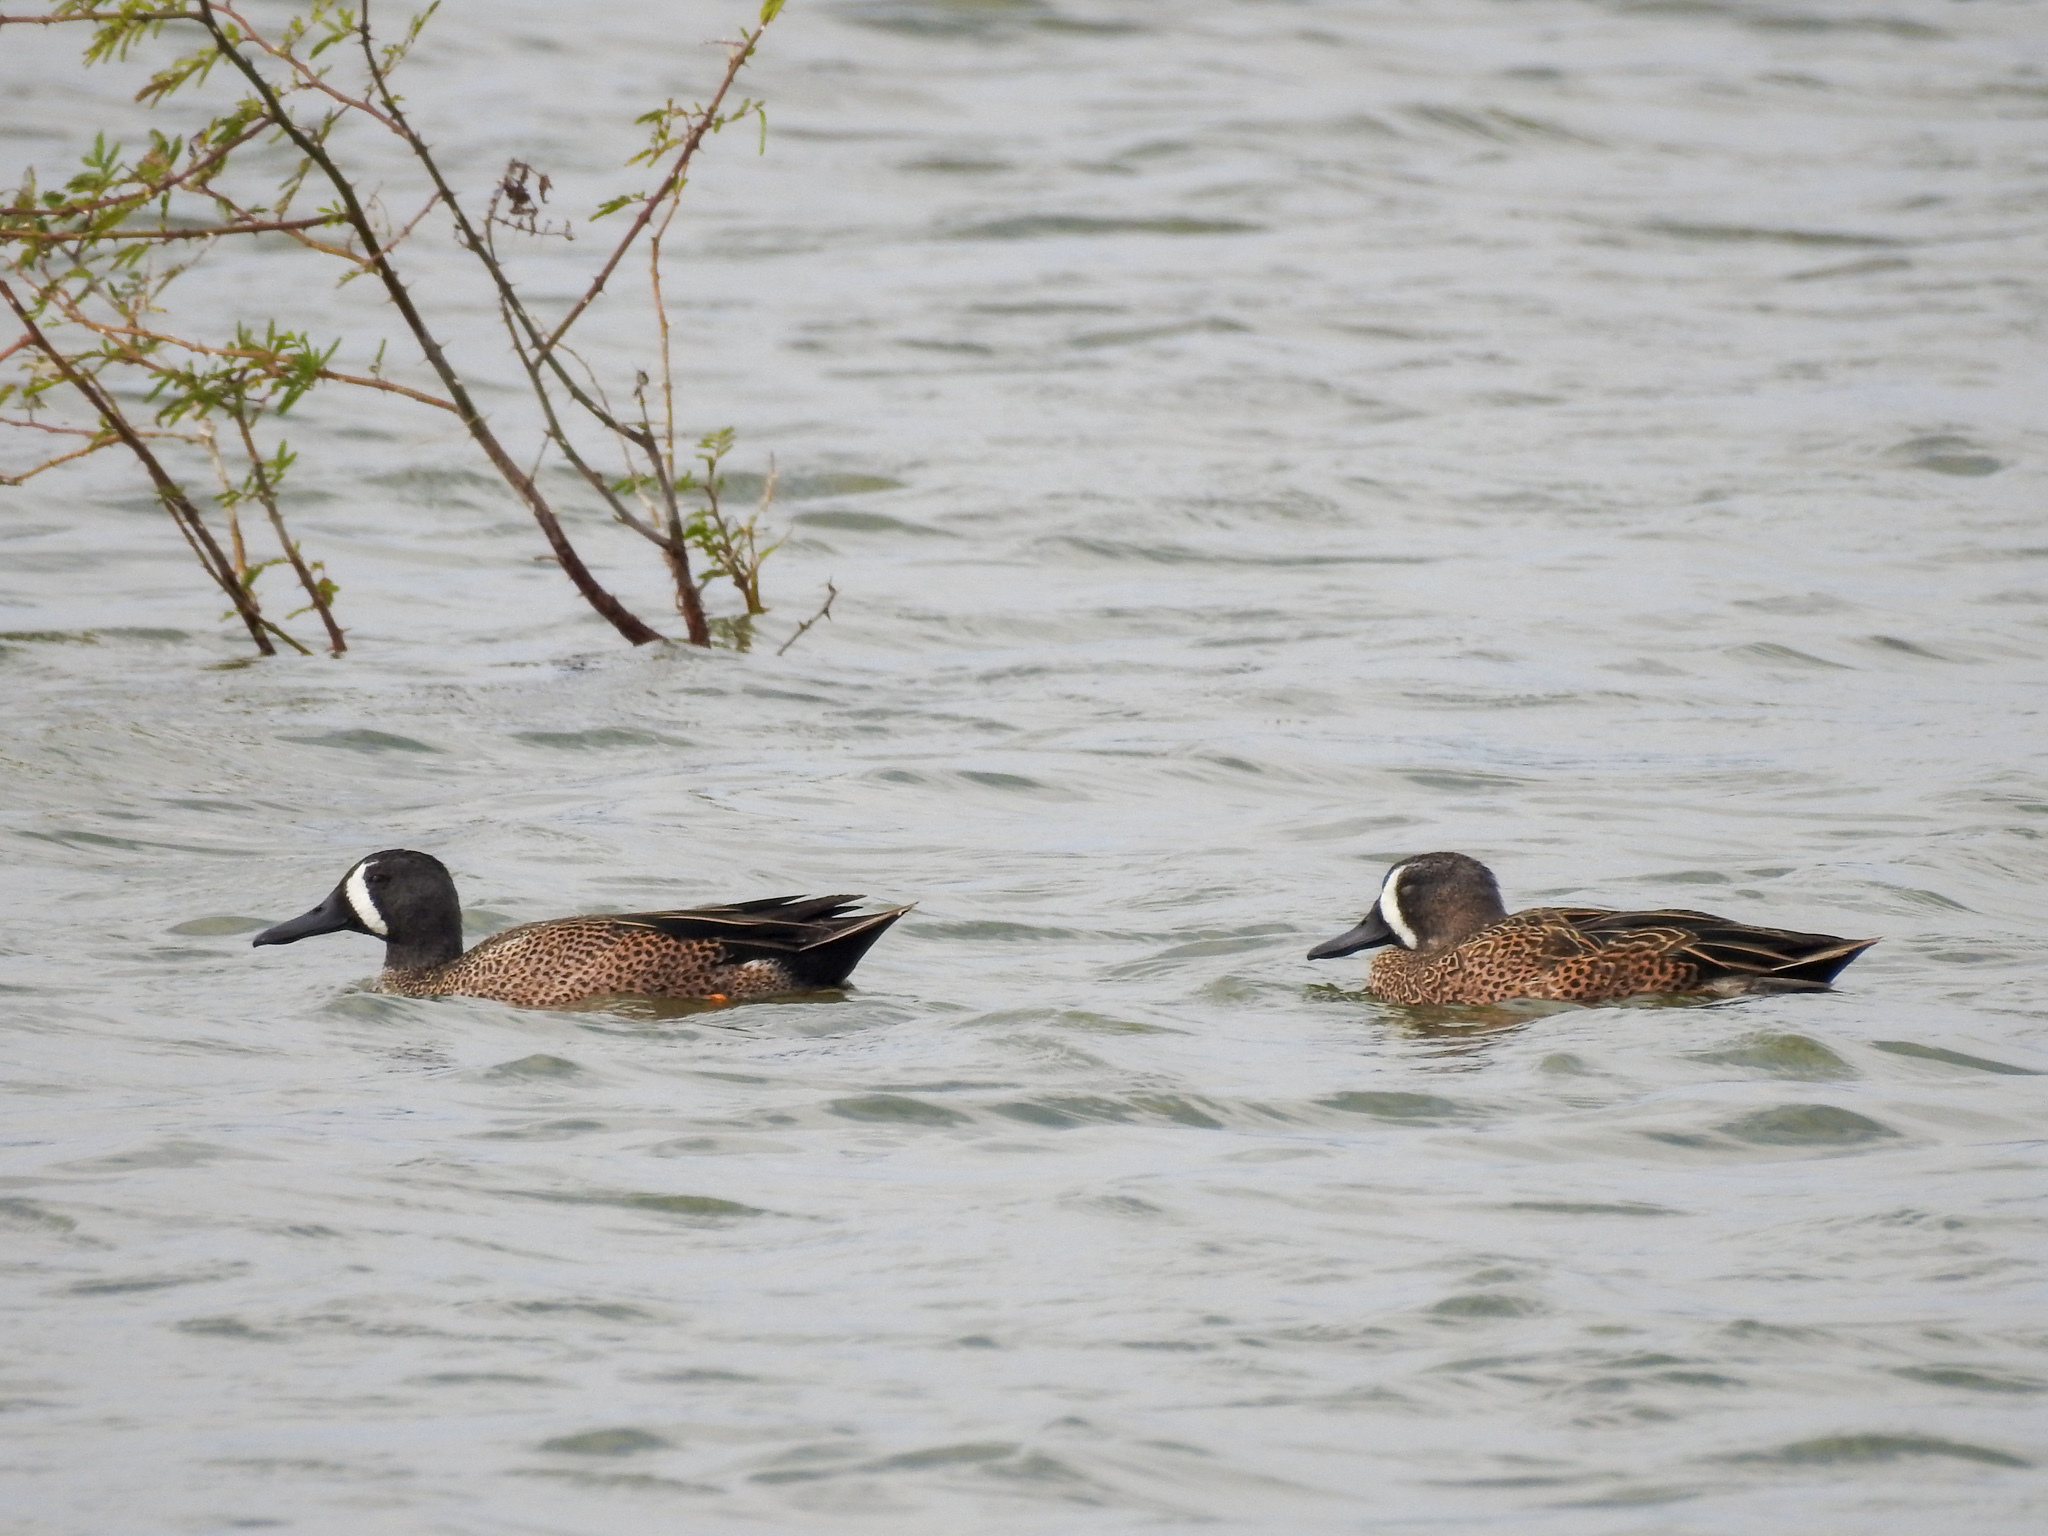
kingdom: Animalia
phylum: Chordata
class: Aves
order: Anseriformes
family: Anatidae
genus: Spatula
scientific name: Spatula discors
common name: Blue-winged teal
